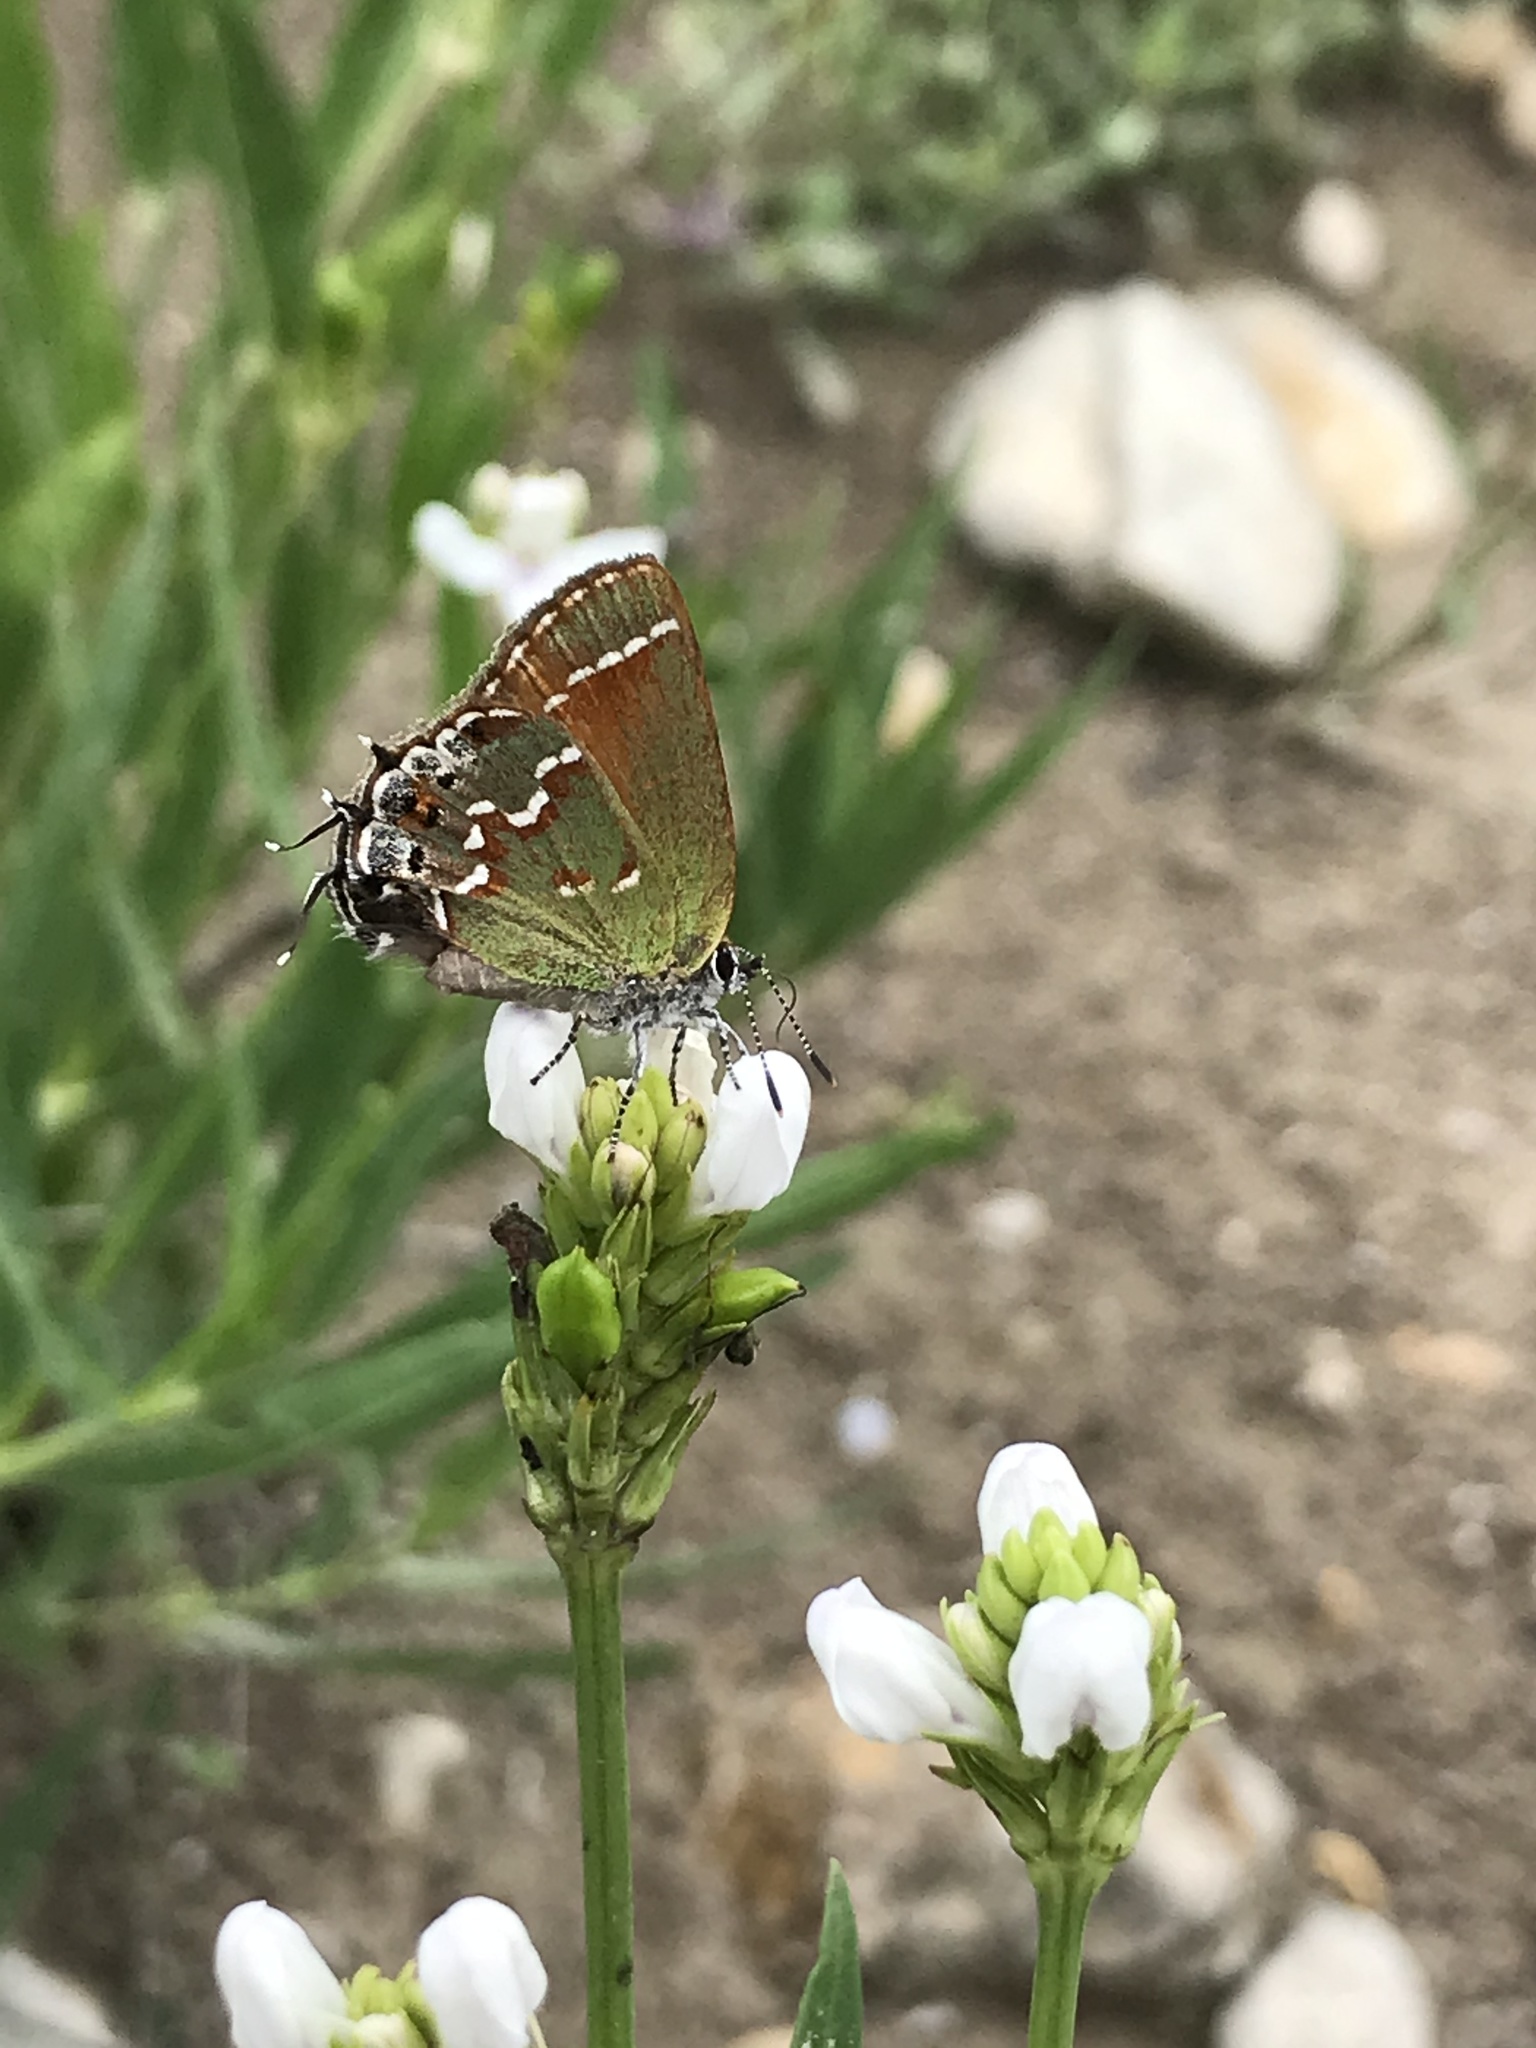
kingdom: Animalia
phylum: Arthropoda
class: Insecta
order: Lepidoptera
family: Lycaenidae
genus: Mitoura
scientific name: Mitoura gryneus
